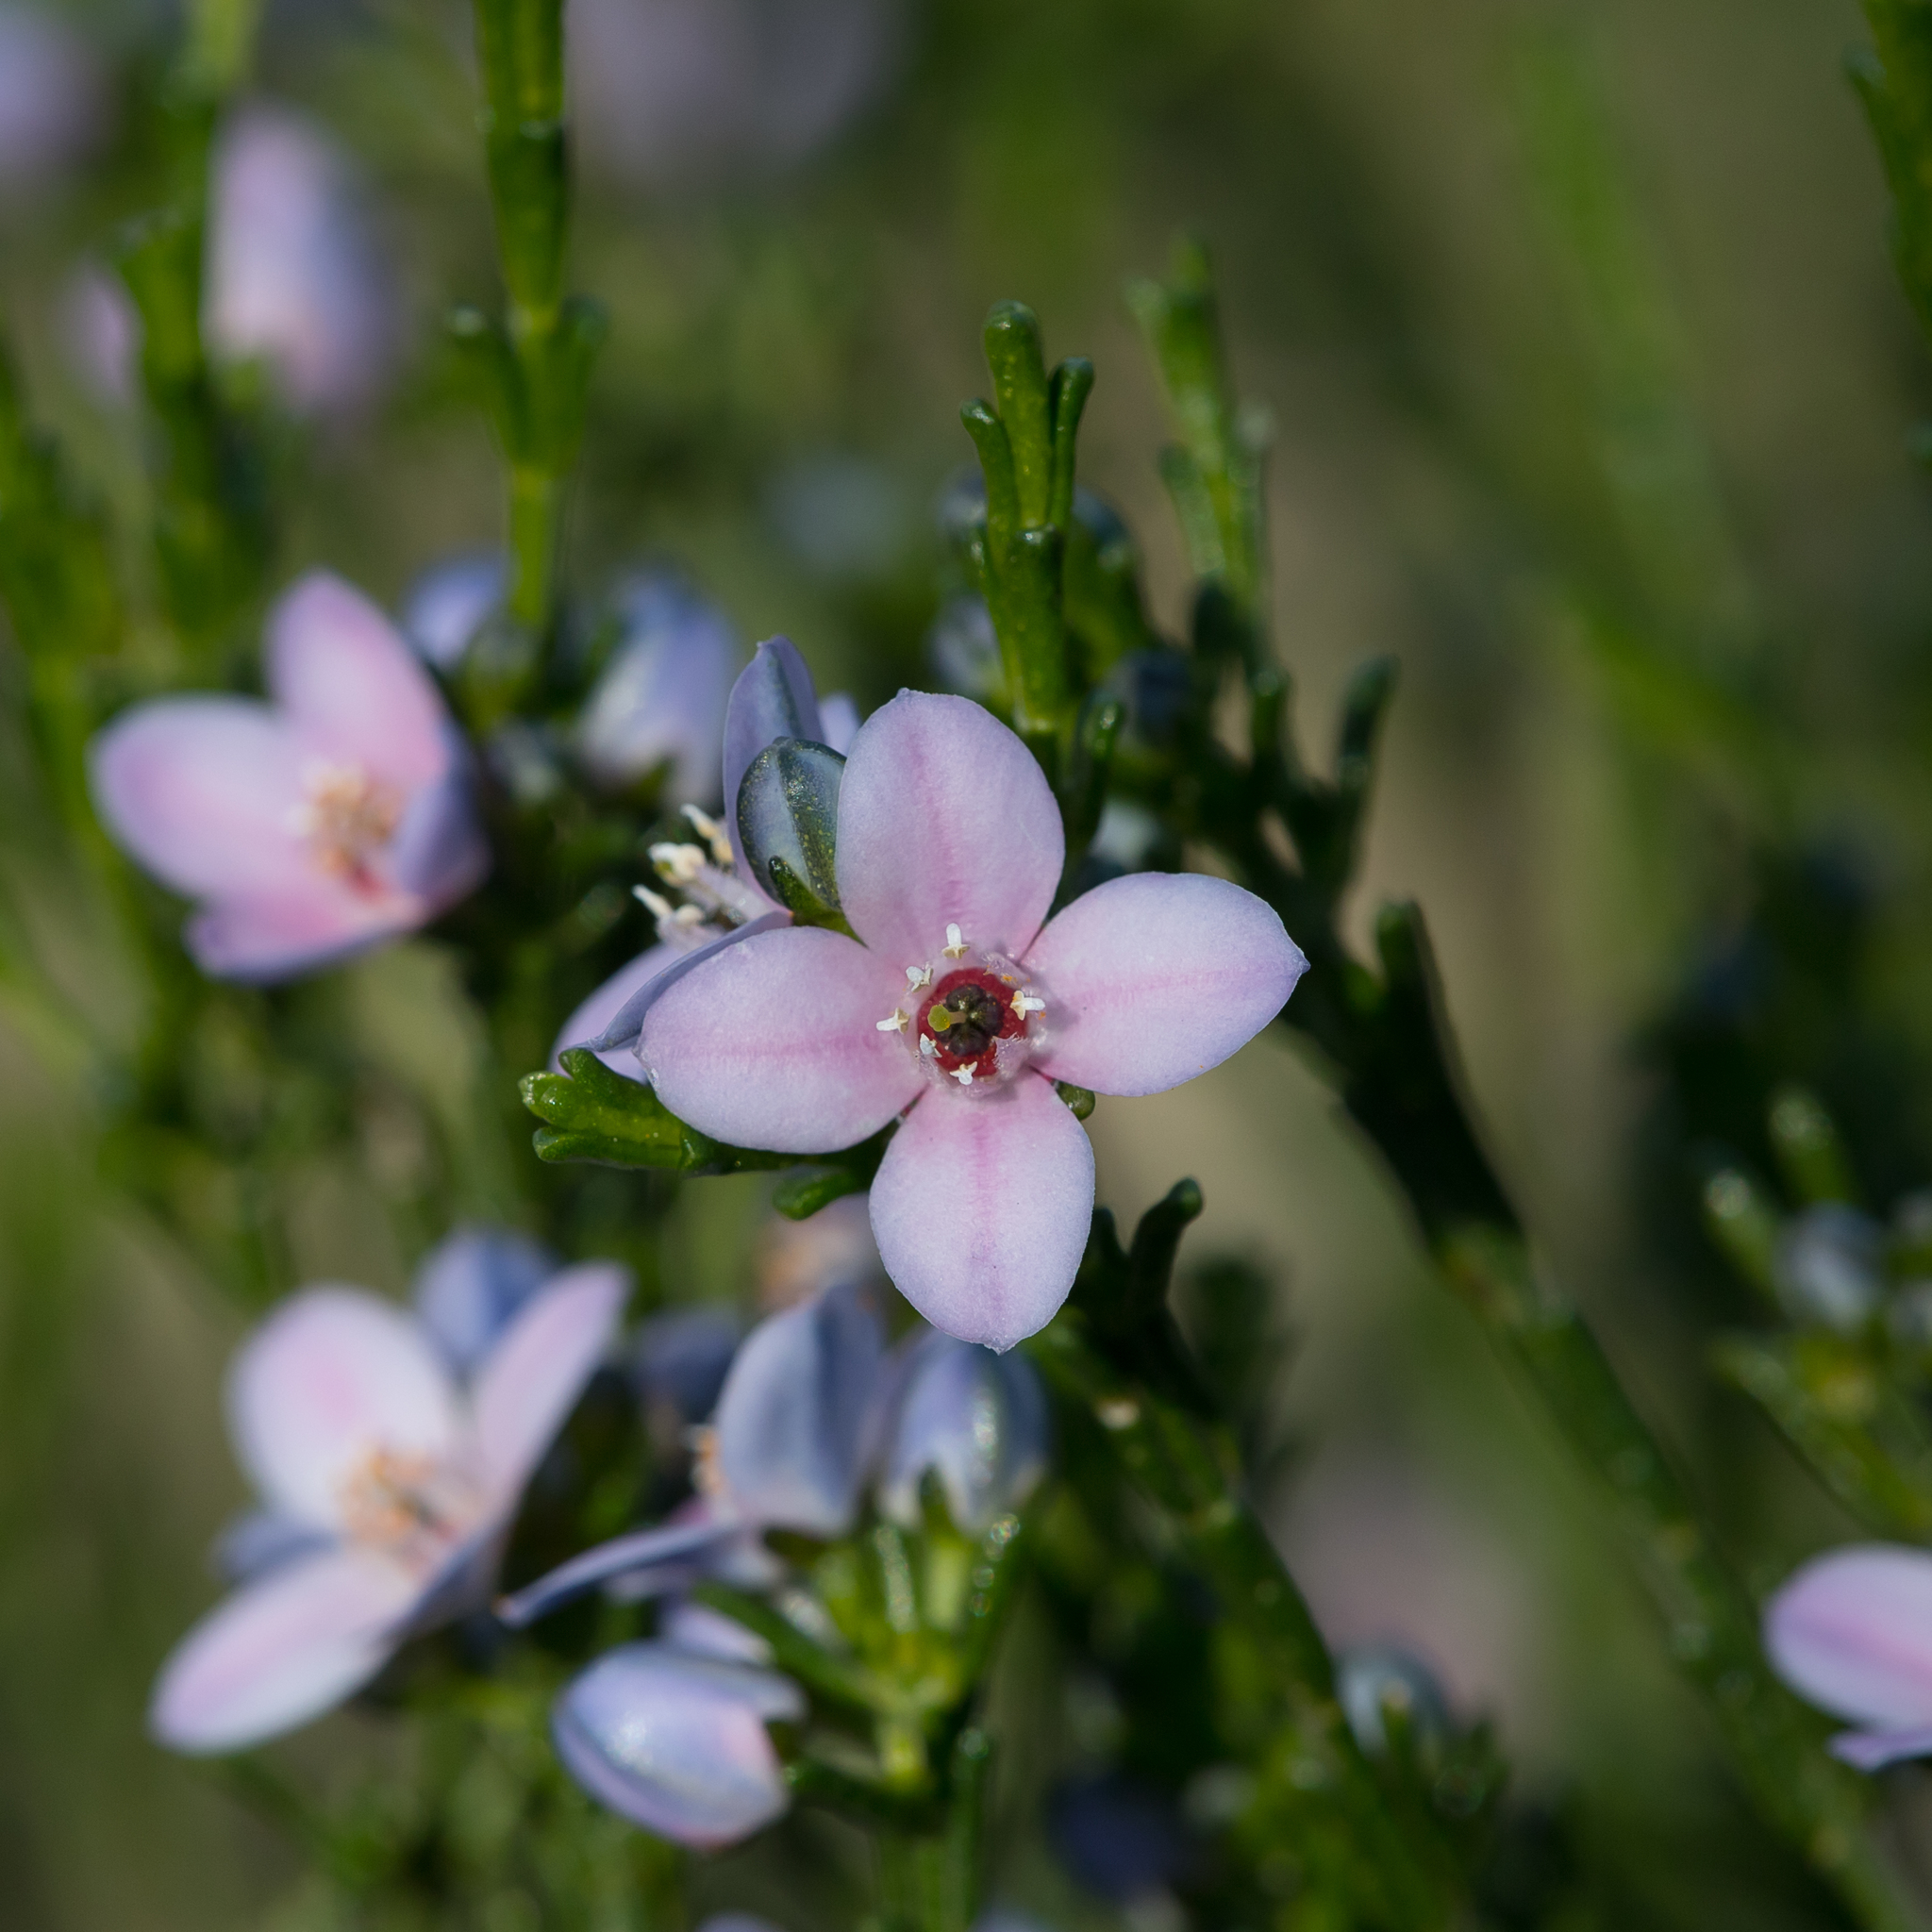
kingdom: Plantae
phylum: Tracheophyta
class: Magnoliopsida
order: Sapindales
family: Rutaceae
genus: Cyanothamnus
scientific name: Cyanothamnus coerulescens
